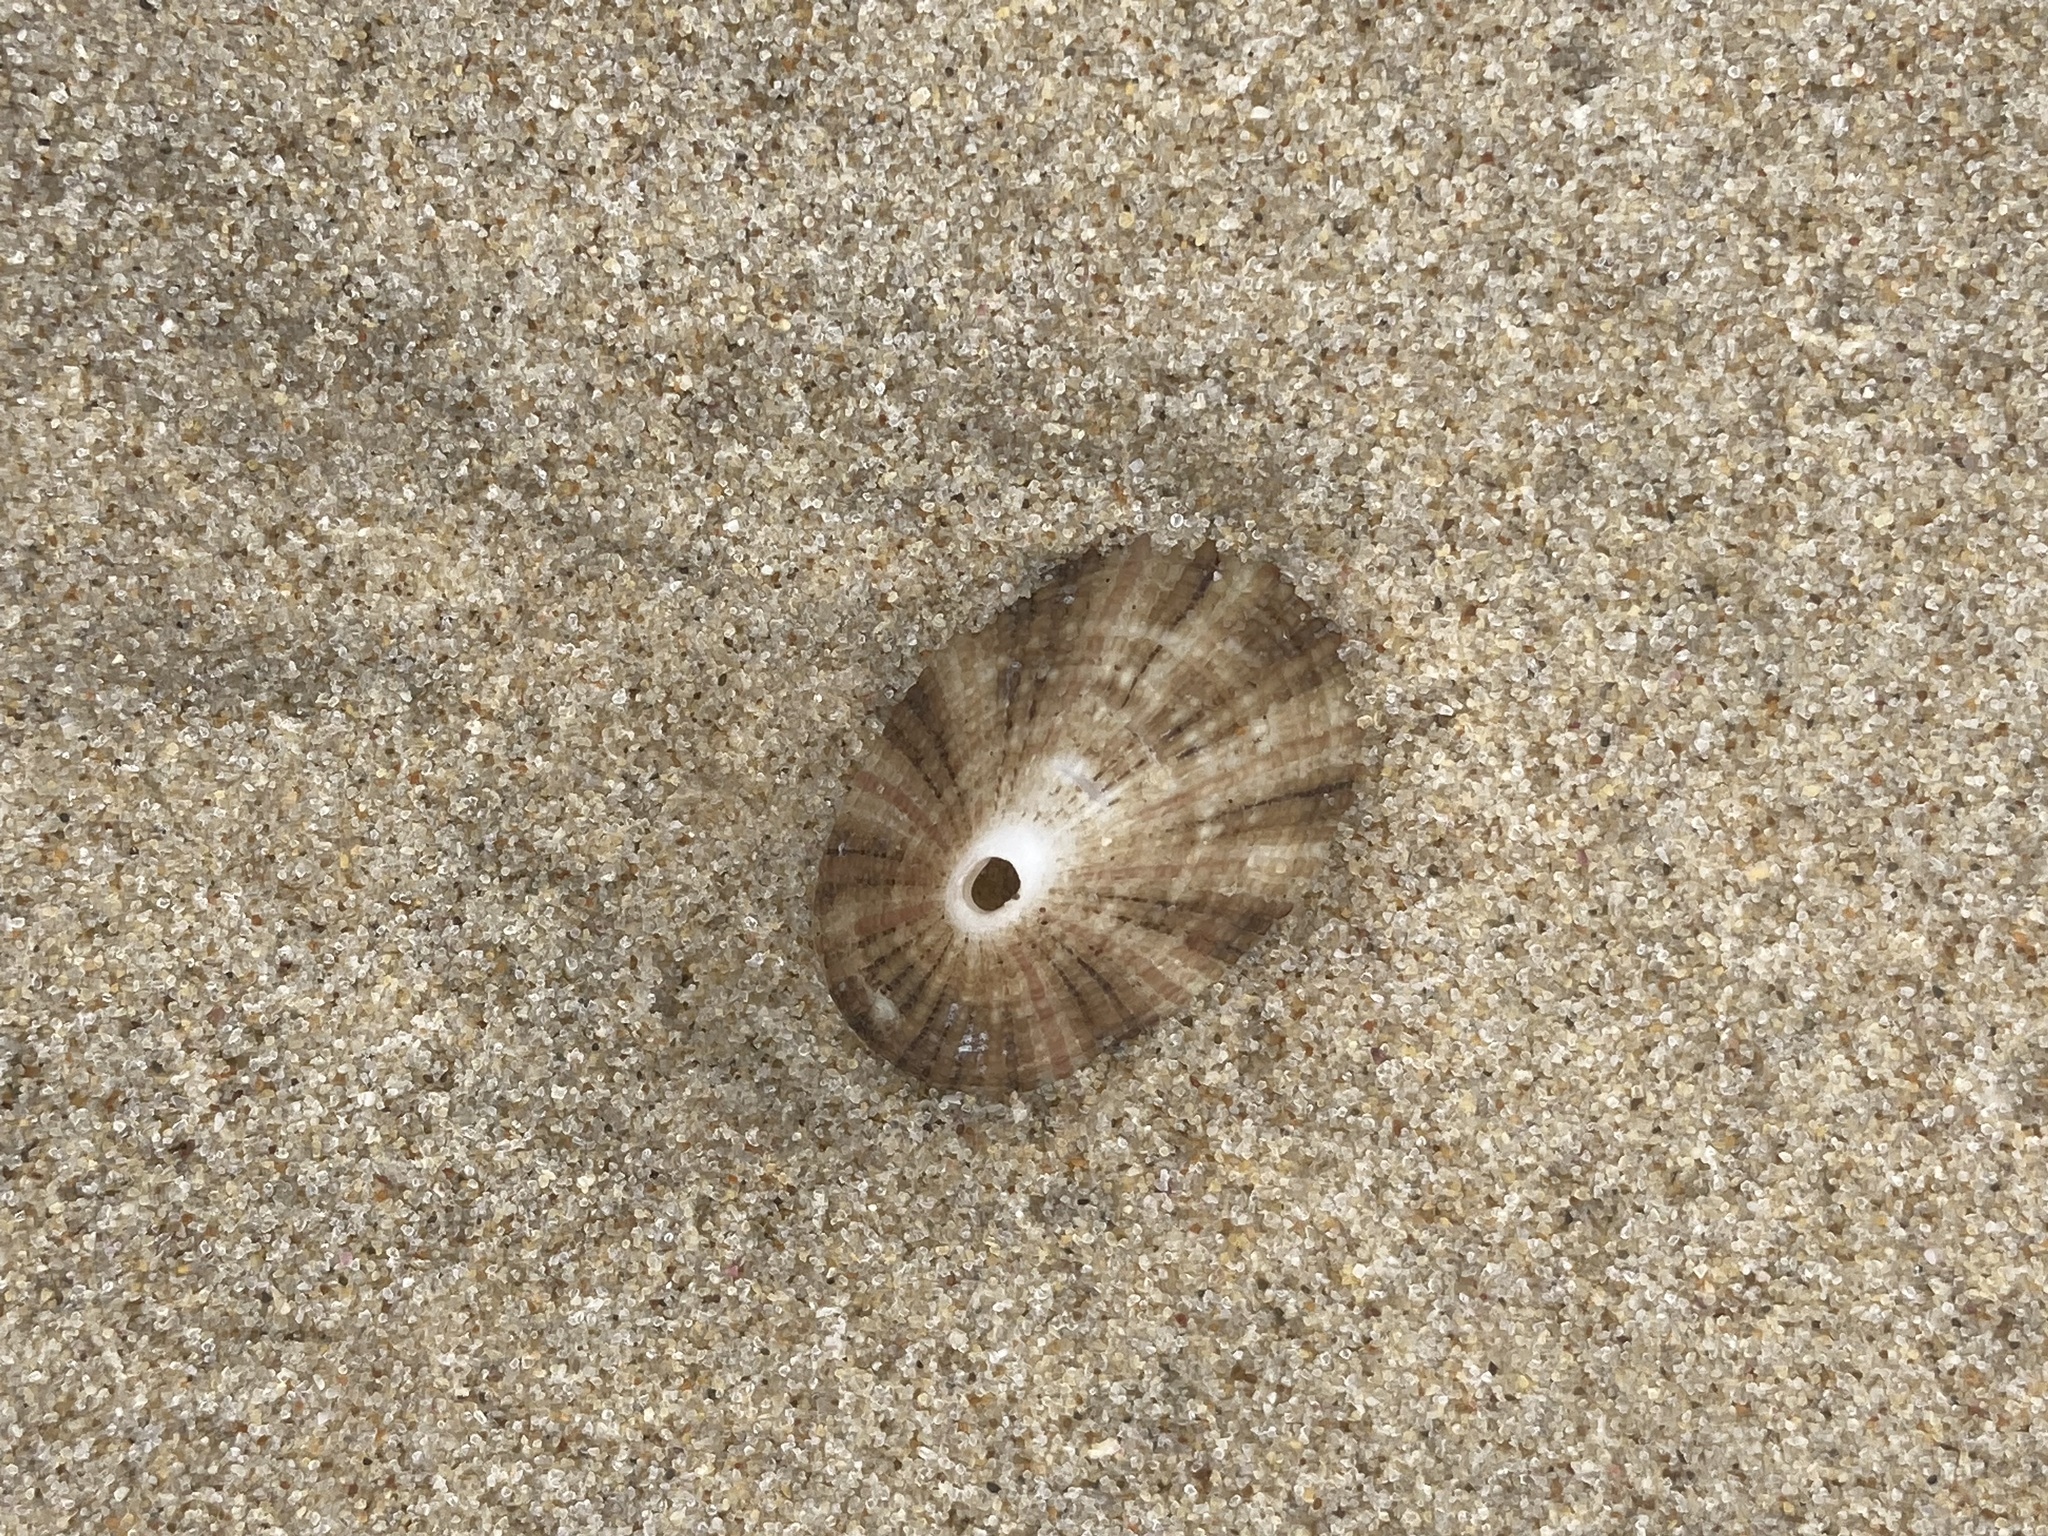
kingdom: Animalia
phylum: Mollusca
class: Gastropoda
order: Lepetellida
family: Fissurellidae
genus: Diodora
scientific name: Diodora lineata
